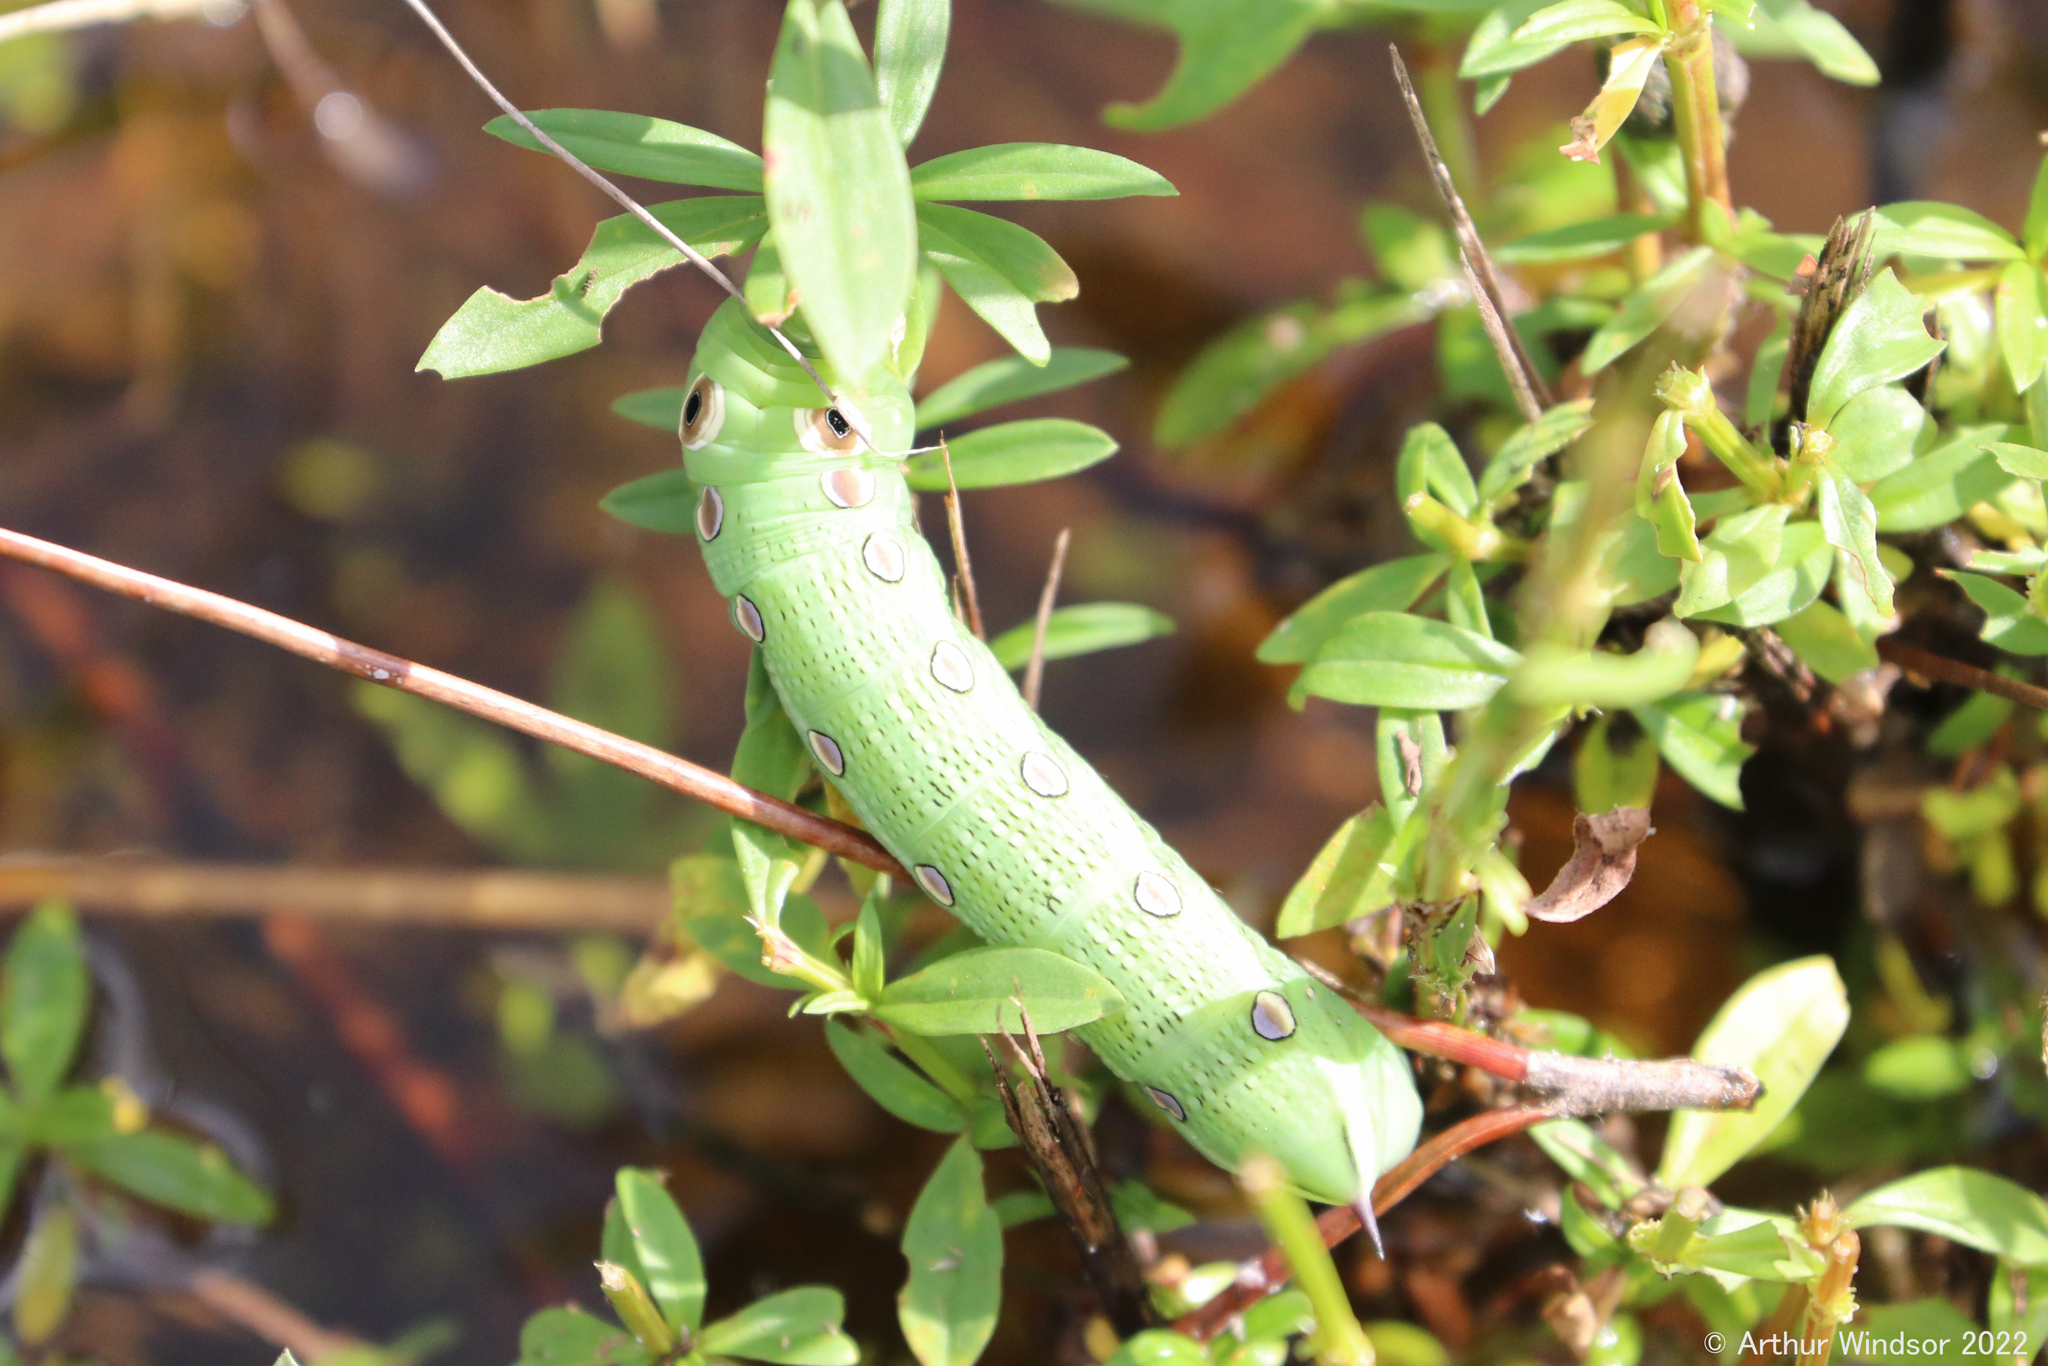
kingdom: Animalia
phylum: Arthropoda
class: Insecta
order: Lepidoptera
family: Sphingidae
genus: Xylophanes
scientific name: Xylophanes tersa
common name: Tersa sphinx
